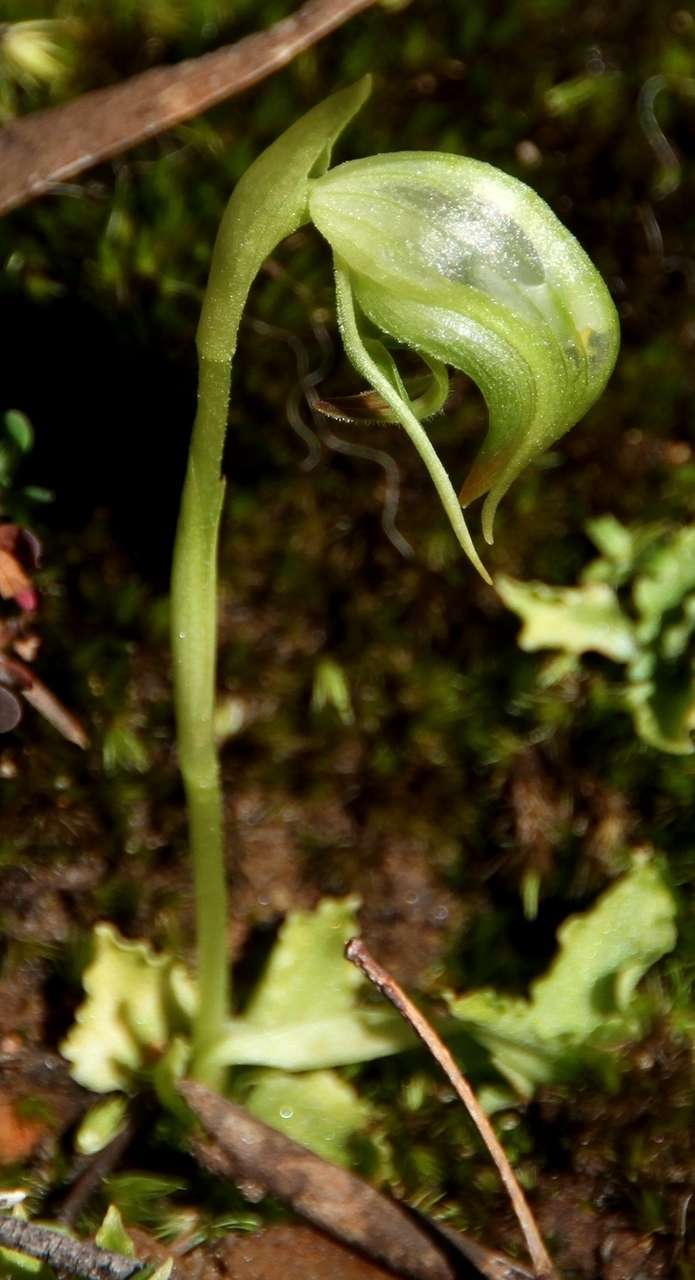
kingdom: Plantae
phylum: Tracheophyta
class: Liliopsida
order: Asparagales
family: Orchidaceae
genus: Pterostylis
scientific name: Pterostylis nutans
